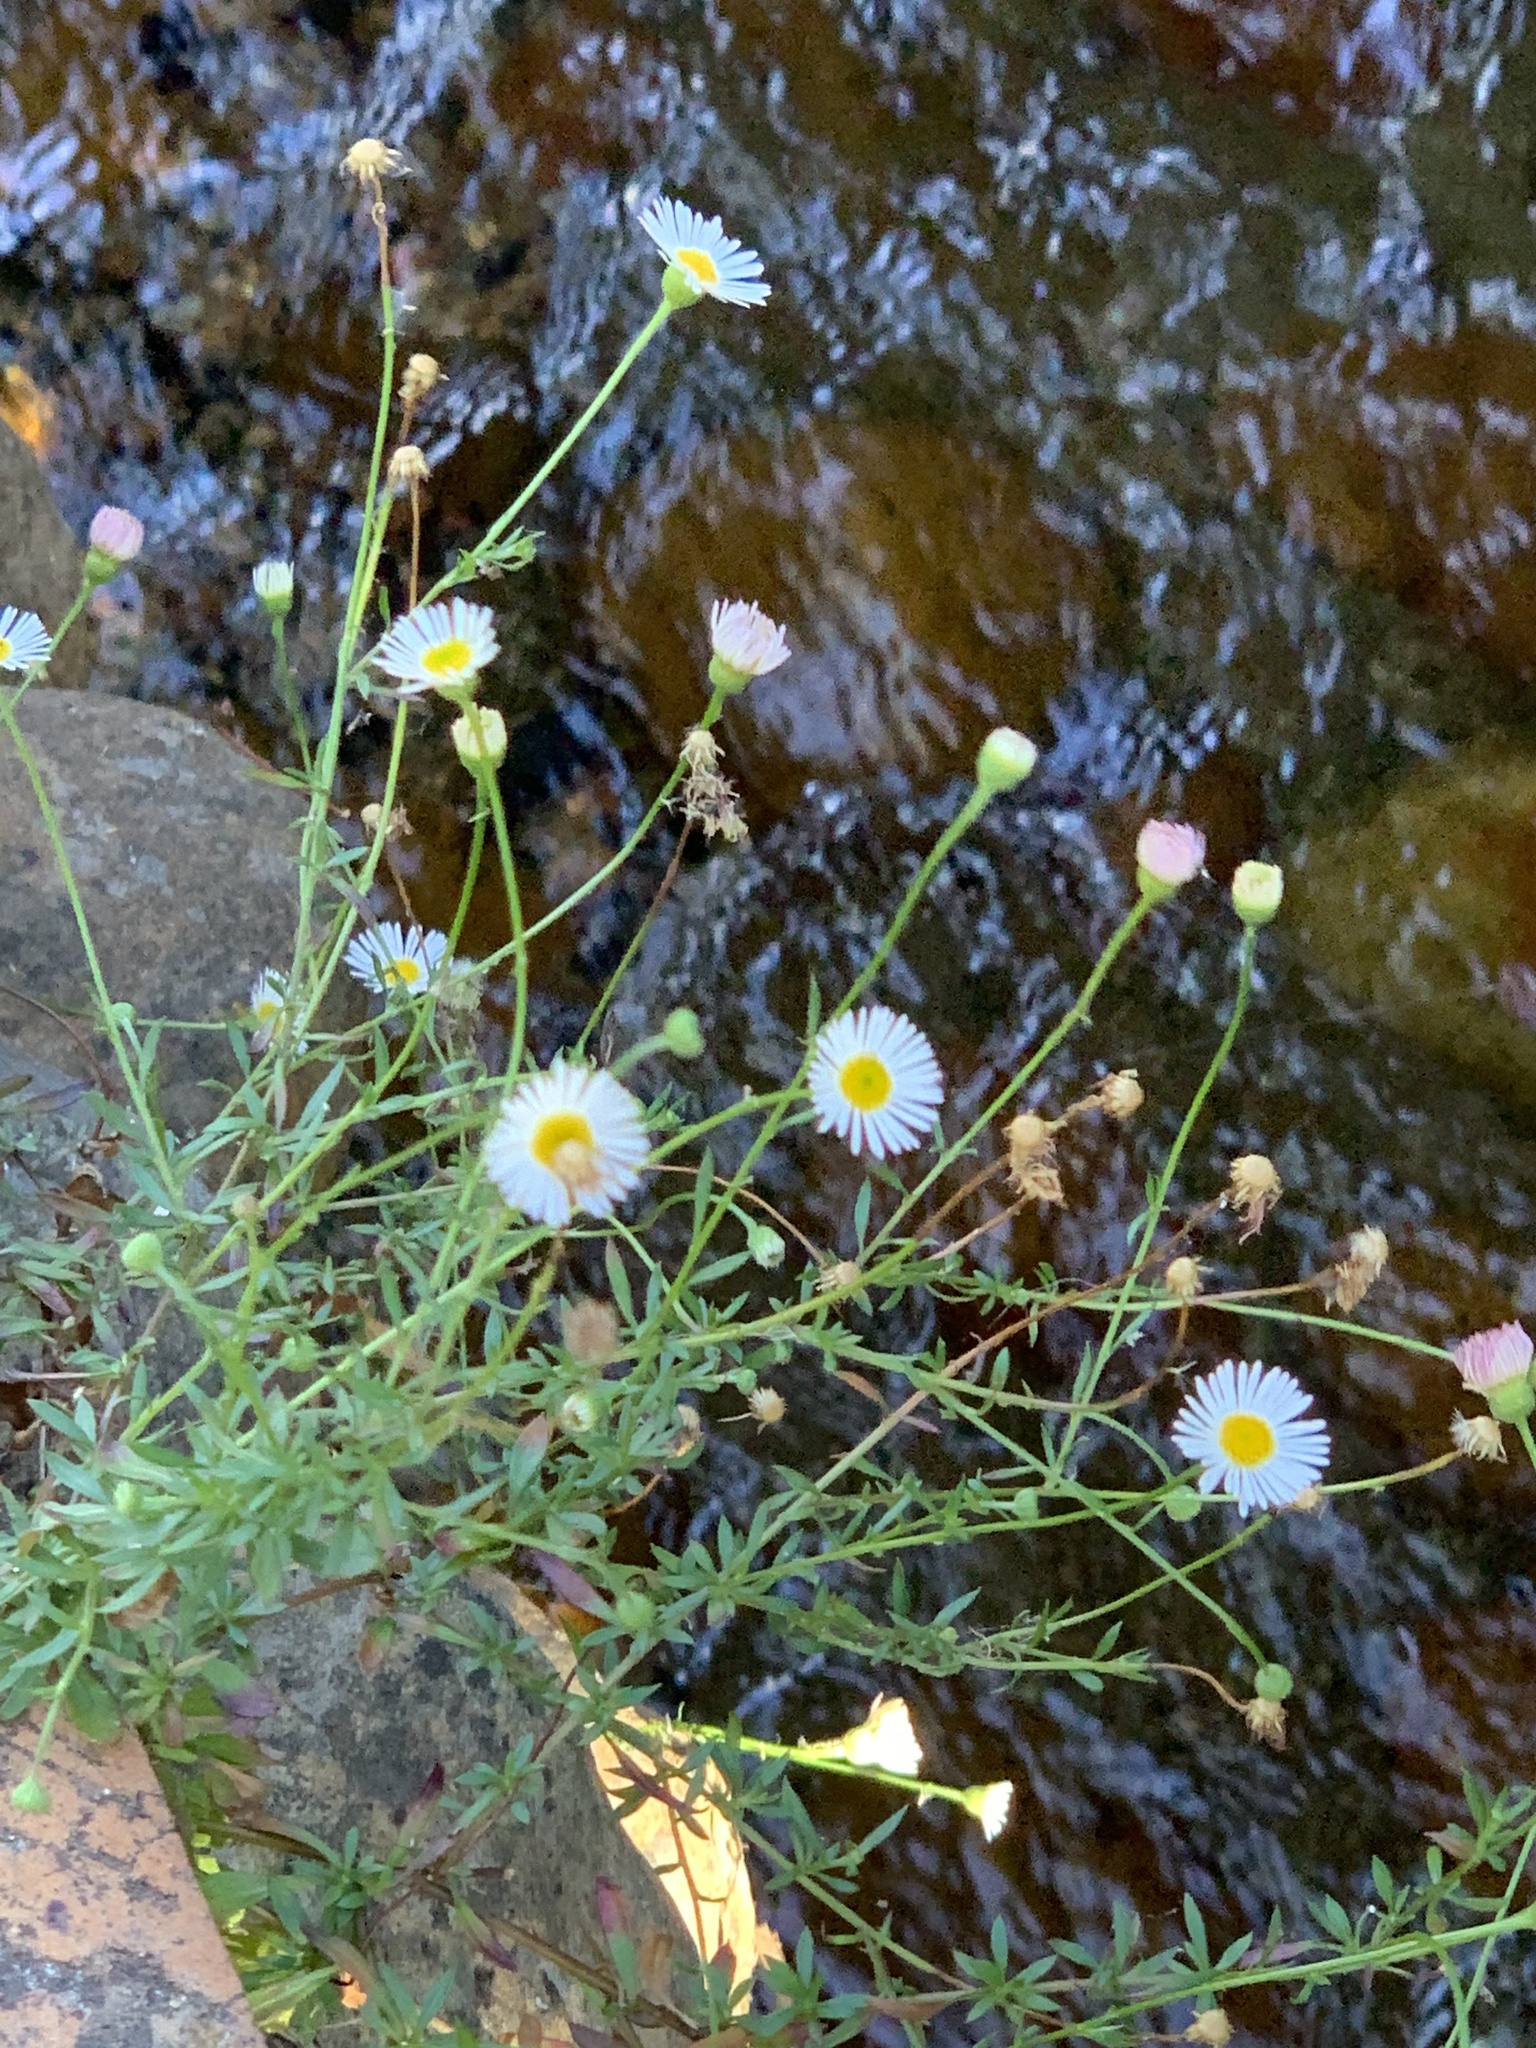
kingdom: Plantae
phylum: Tracheophyta
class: Magnoliopsida
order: Asterales
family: Asteraceae
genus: Erigeron
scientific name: Erigeron karvinskianus
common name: Mexican fleabane
